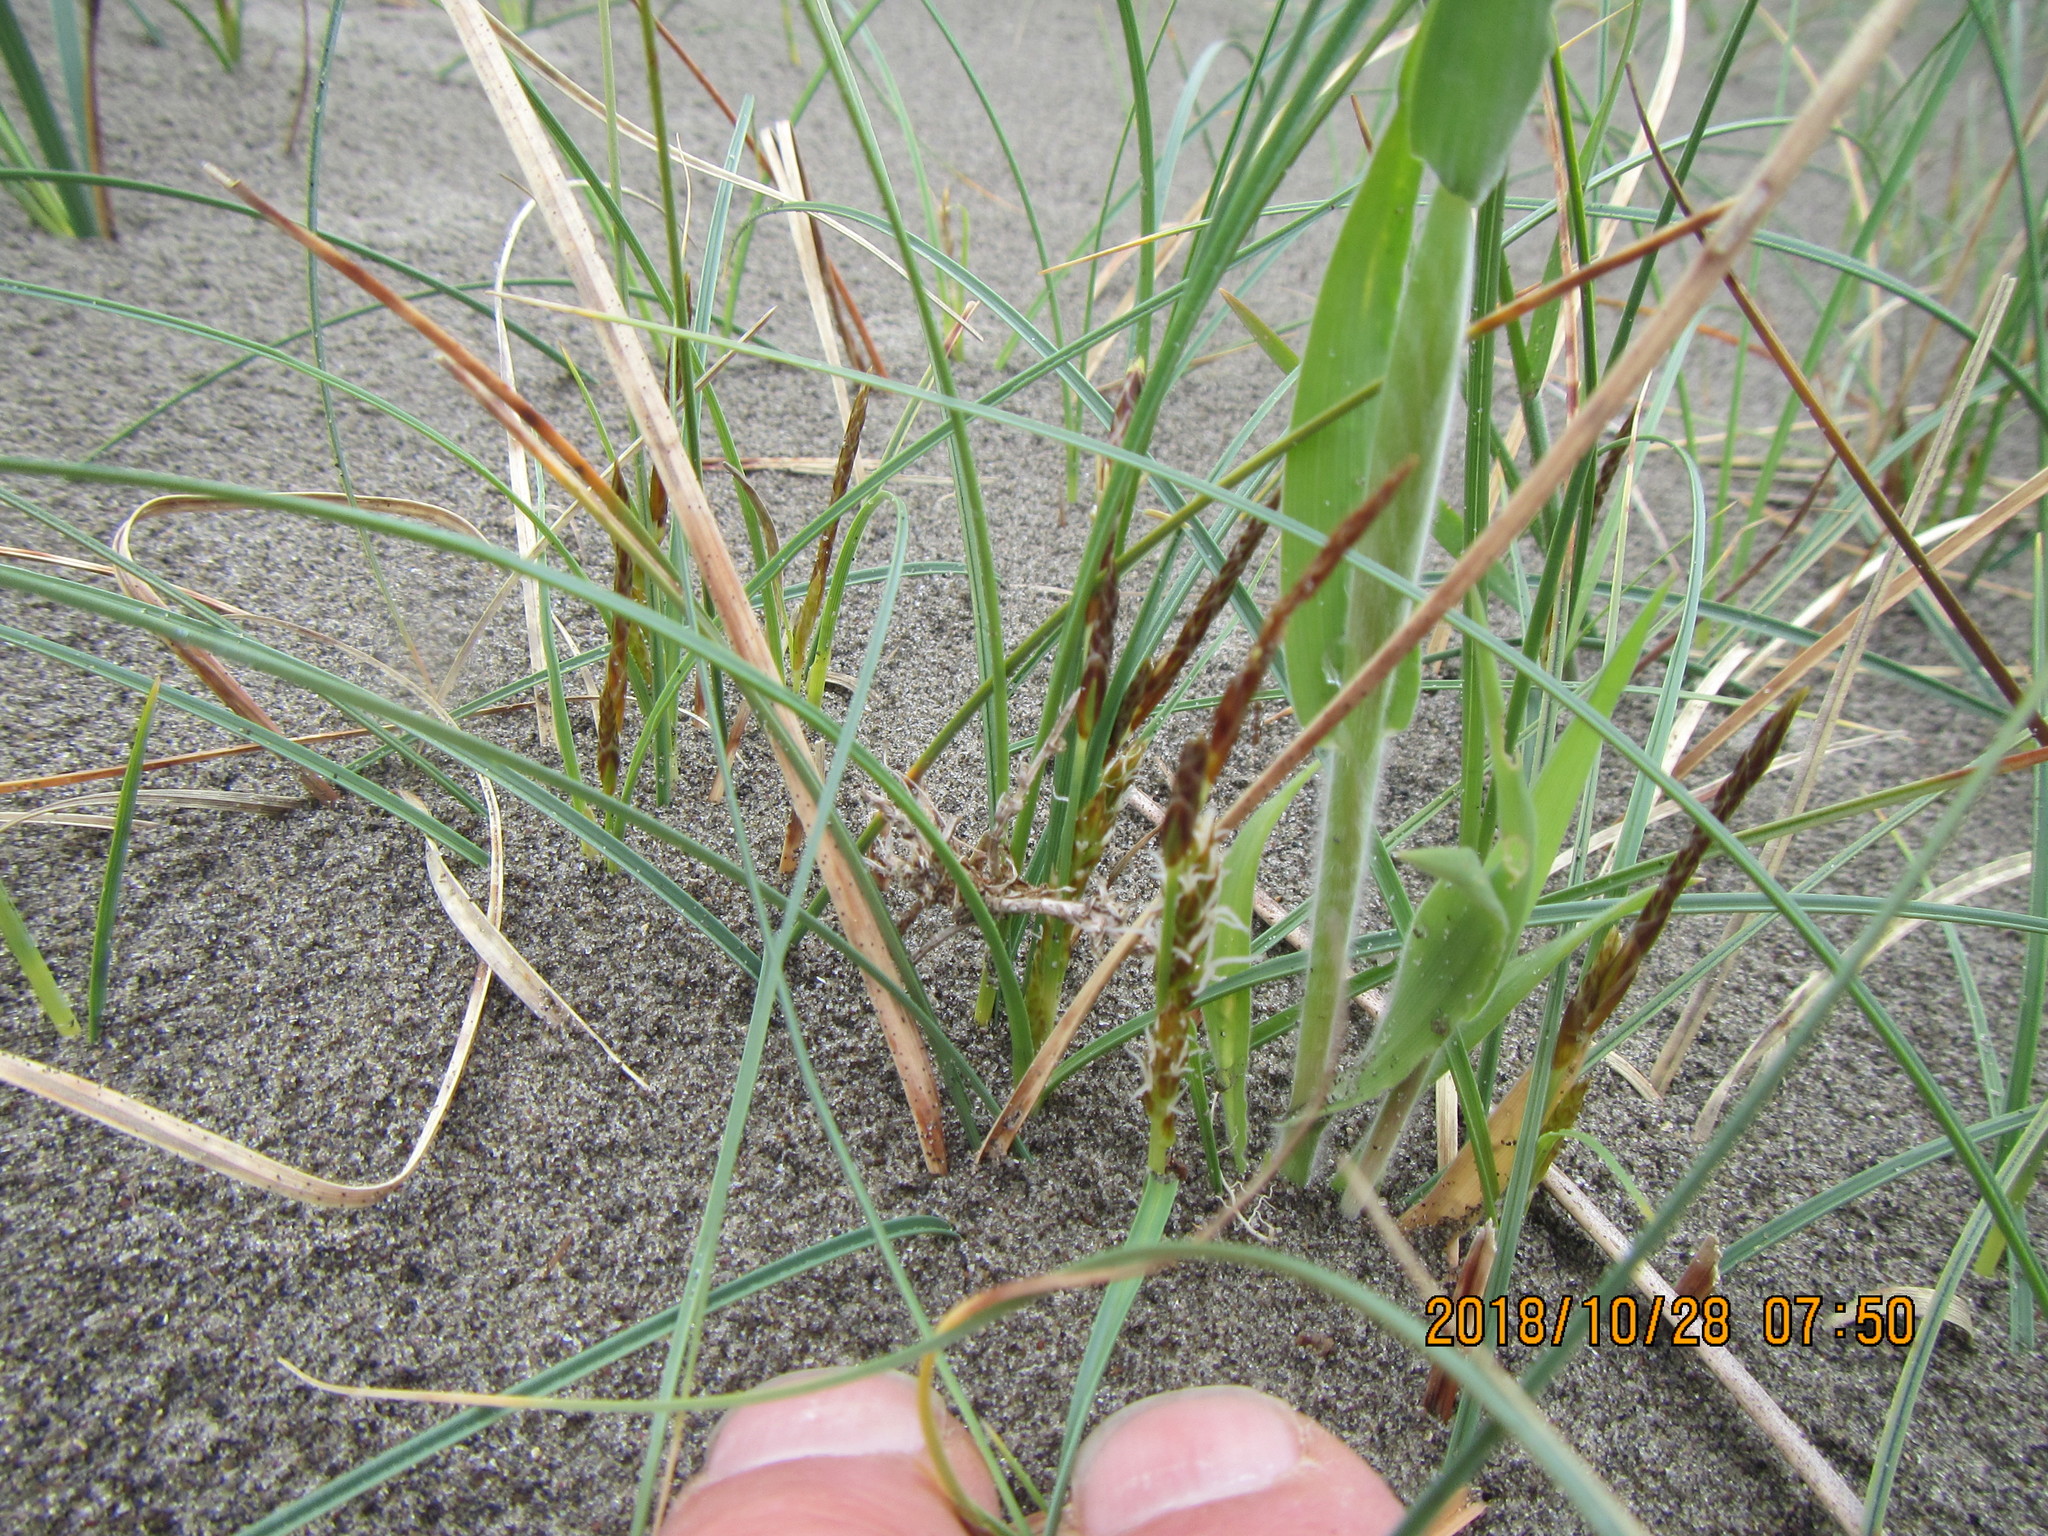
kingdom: Plantae
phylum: Tracheophyta
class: Liliopsida
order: Poales
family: Cyperaceae
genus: Carex
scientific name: Carex pumila
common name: Dwarf sedge
